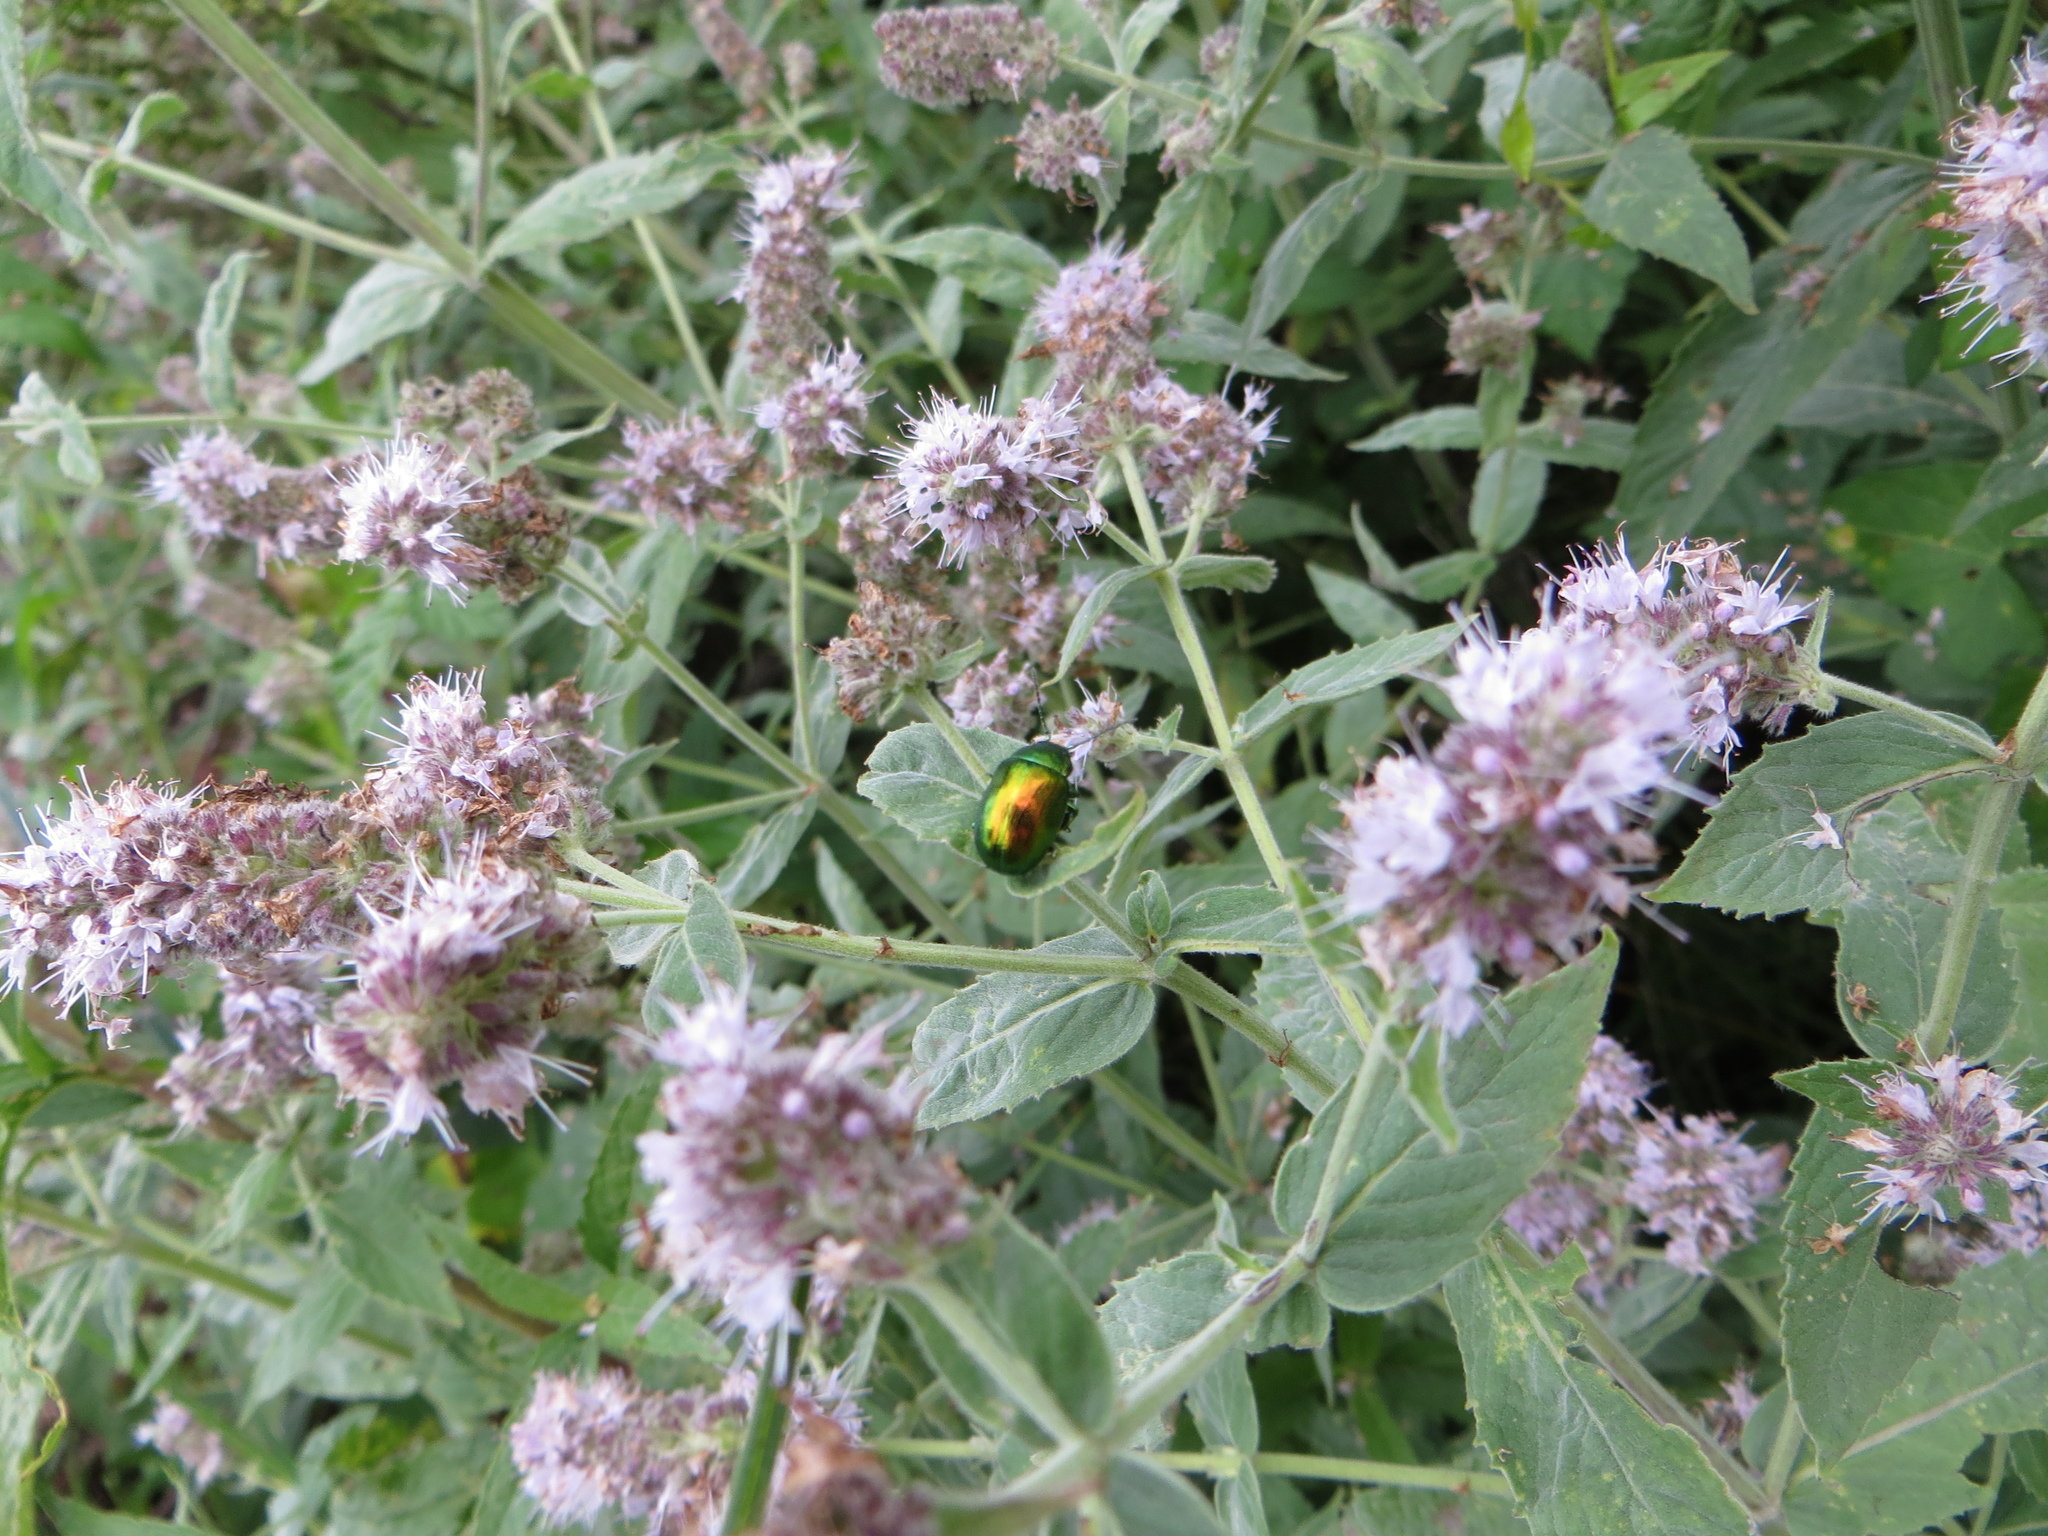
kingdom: Animalia
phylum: Arthropoda
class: Insecta
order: Coleoptera
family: Chrysomelidae
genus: Chrysolina
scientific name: Chrysolina herbacea
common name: Mint leaf beatle
